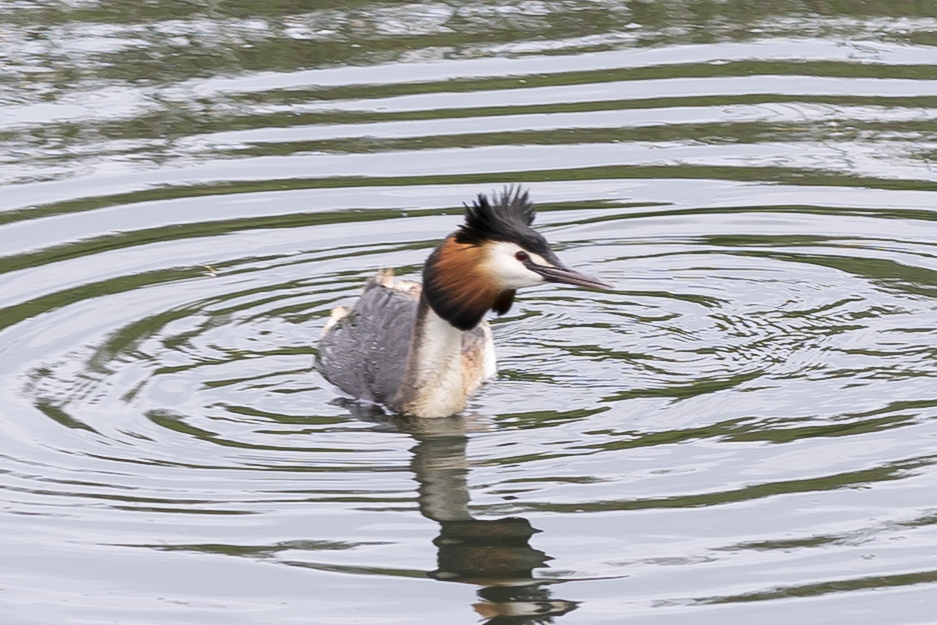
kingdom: Animalia
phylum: Chordata
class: Aves
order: Podicipediformes
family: Podicipedidae
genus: Podiceps
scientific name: Podiceps cristatus
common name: Great crested grebe
